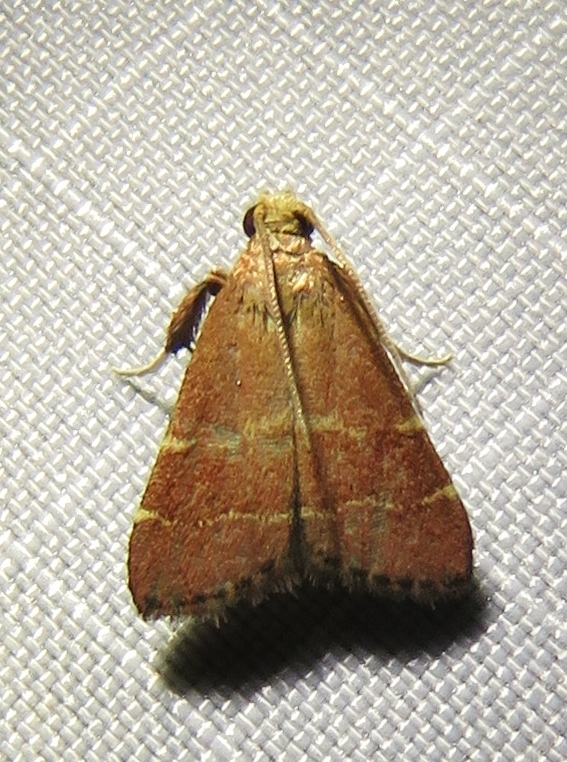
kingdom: Animalia
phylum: Arthropoda
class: Insecta
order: Lepidoptera
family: Pyralidae
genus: Arta
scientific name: Arta statalis
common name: Posturing arta moth
